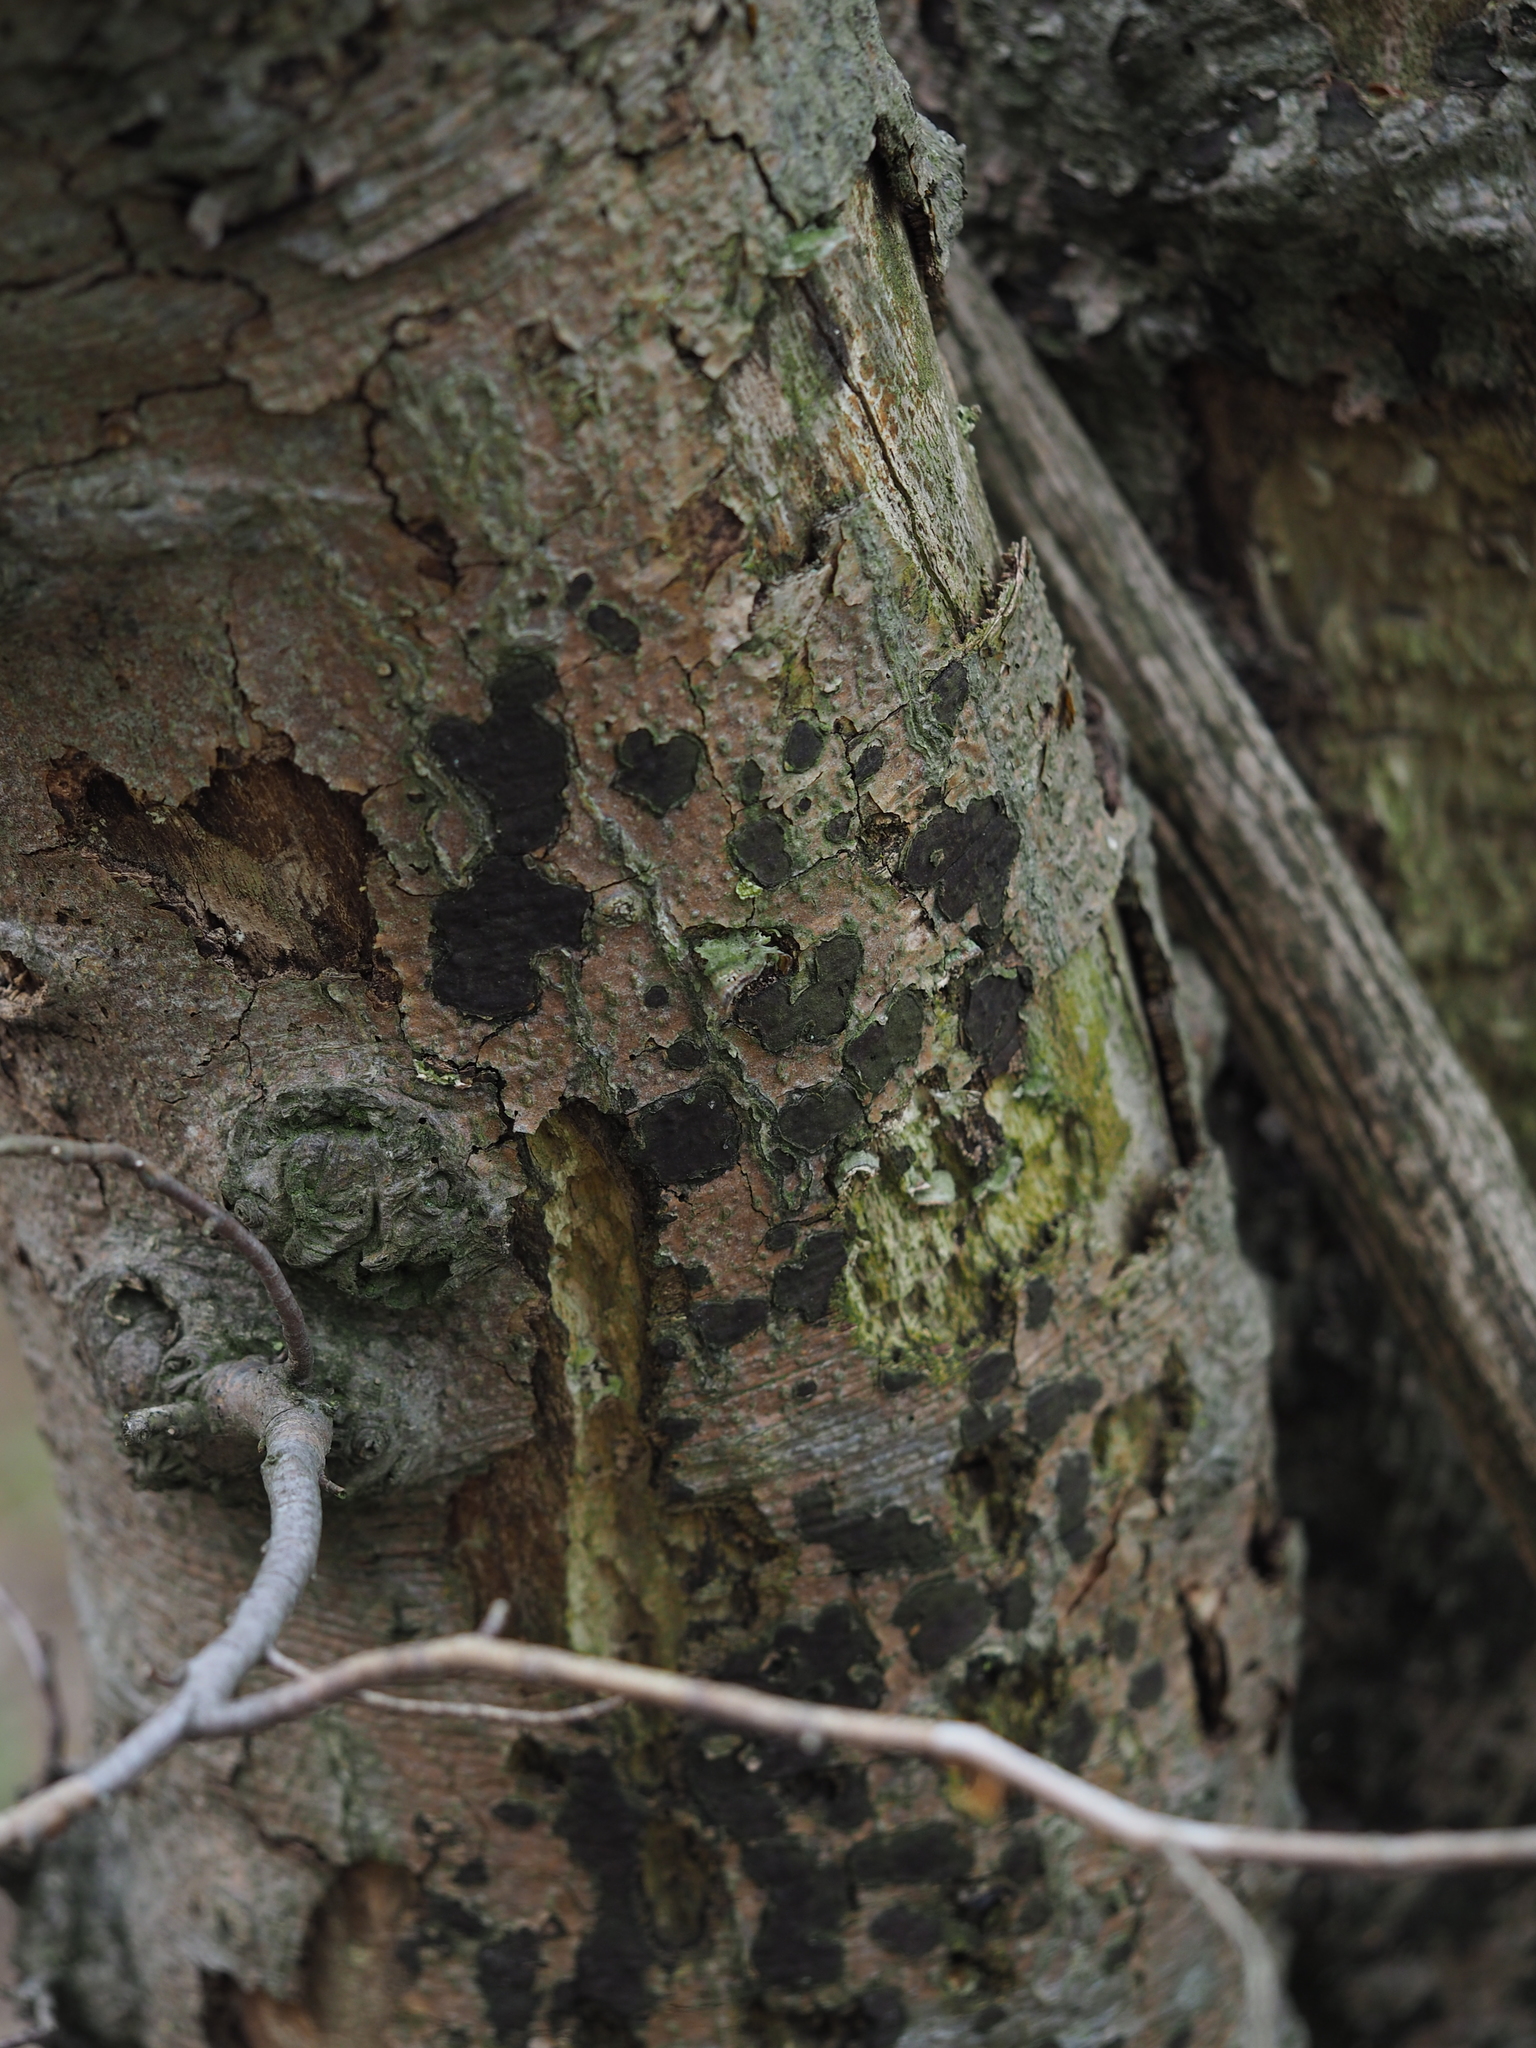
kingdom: Fungi
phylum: Ascomycota
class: Sordariomycetes
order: Xylariales
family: Graphostromataceae
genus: Biscogniauxia
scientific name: Biscogniauxia nummularia
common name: Beech tarcrust
